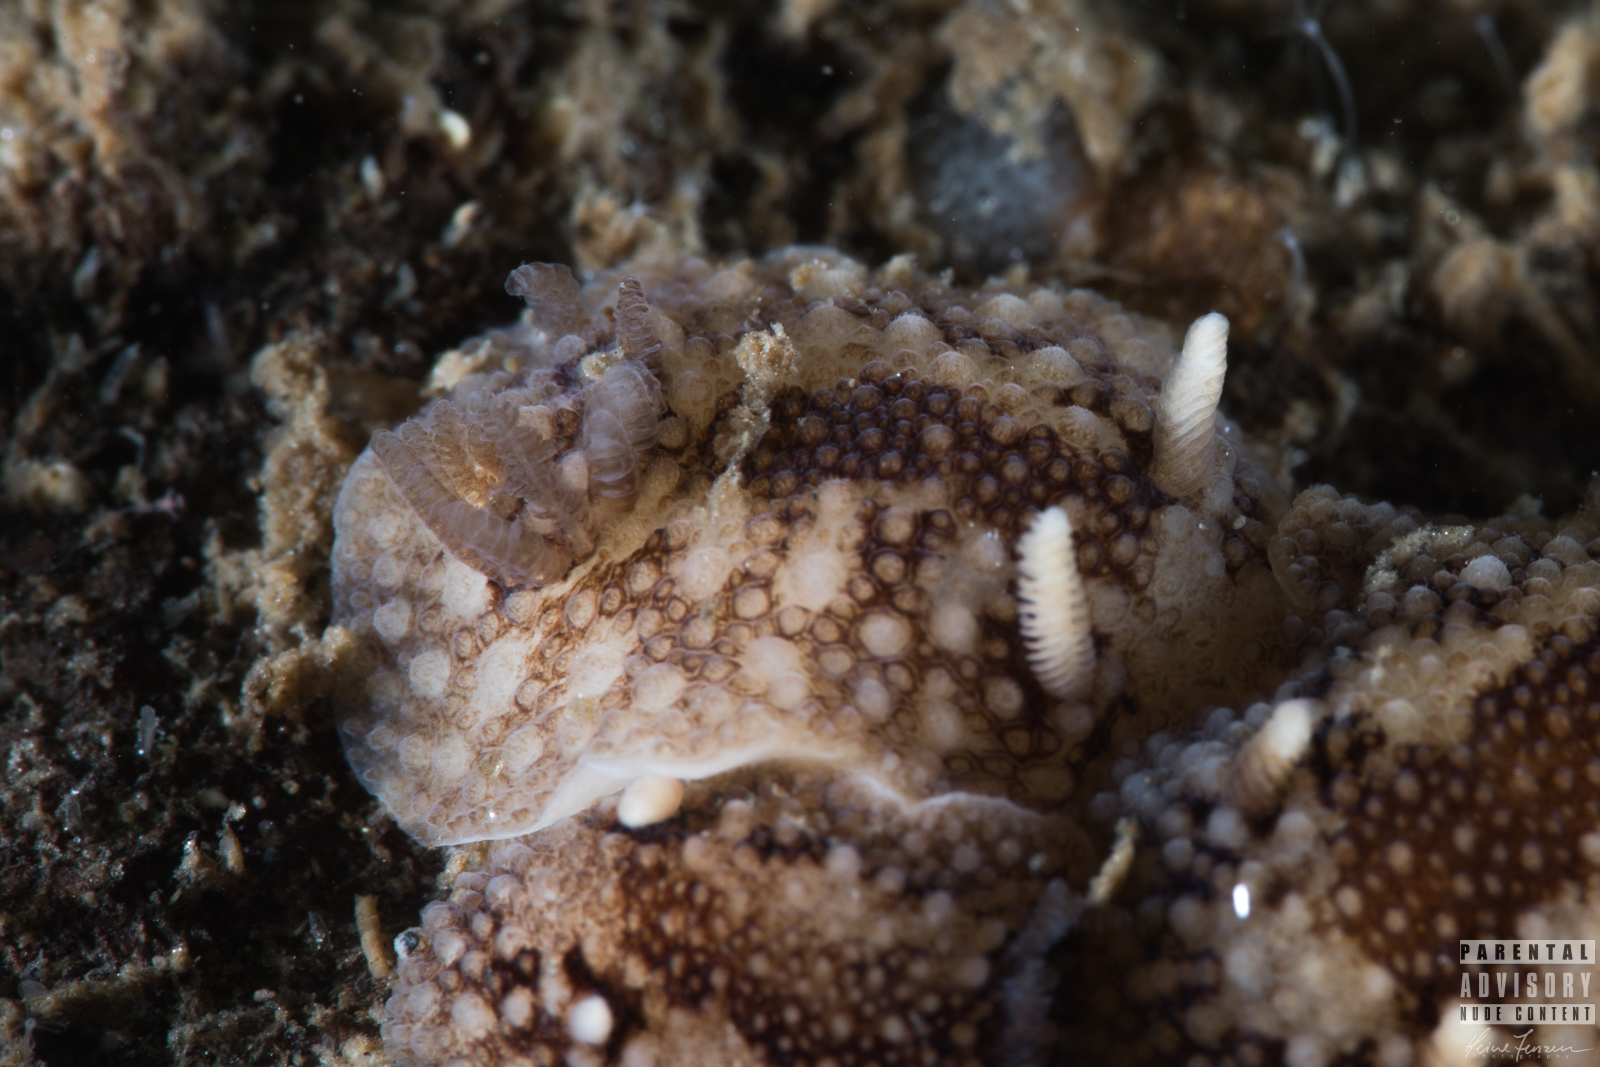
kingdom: Animalia
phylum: Mollusca
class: Gastropoda
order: Nudibranchia
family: Onchidorididae
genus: Onchidoris
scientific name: Onchidoris bilamellata
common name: Barnacle-eating onchidoris
